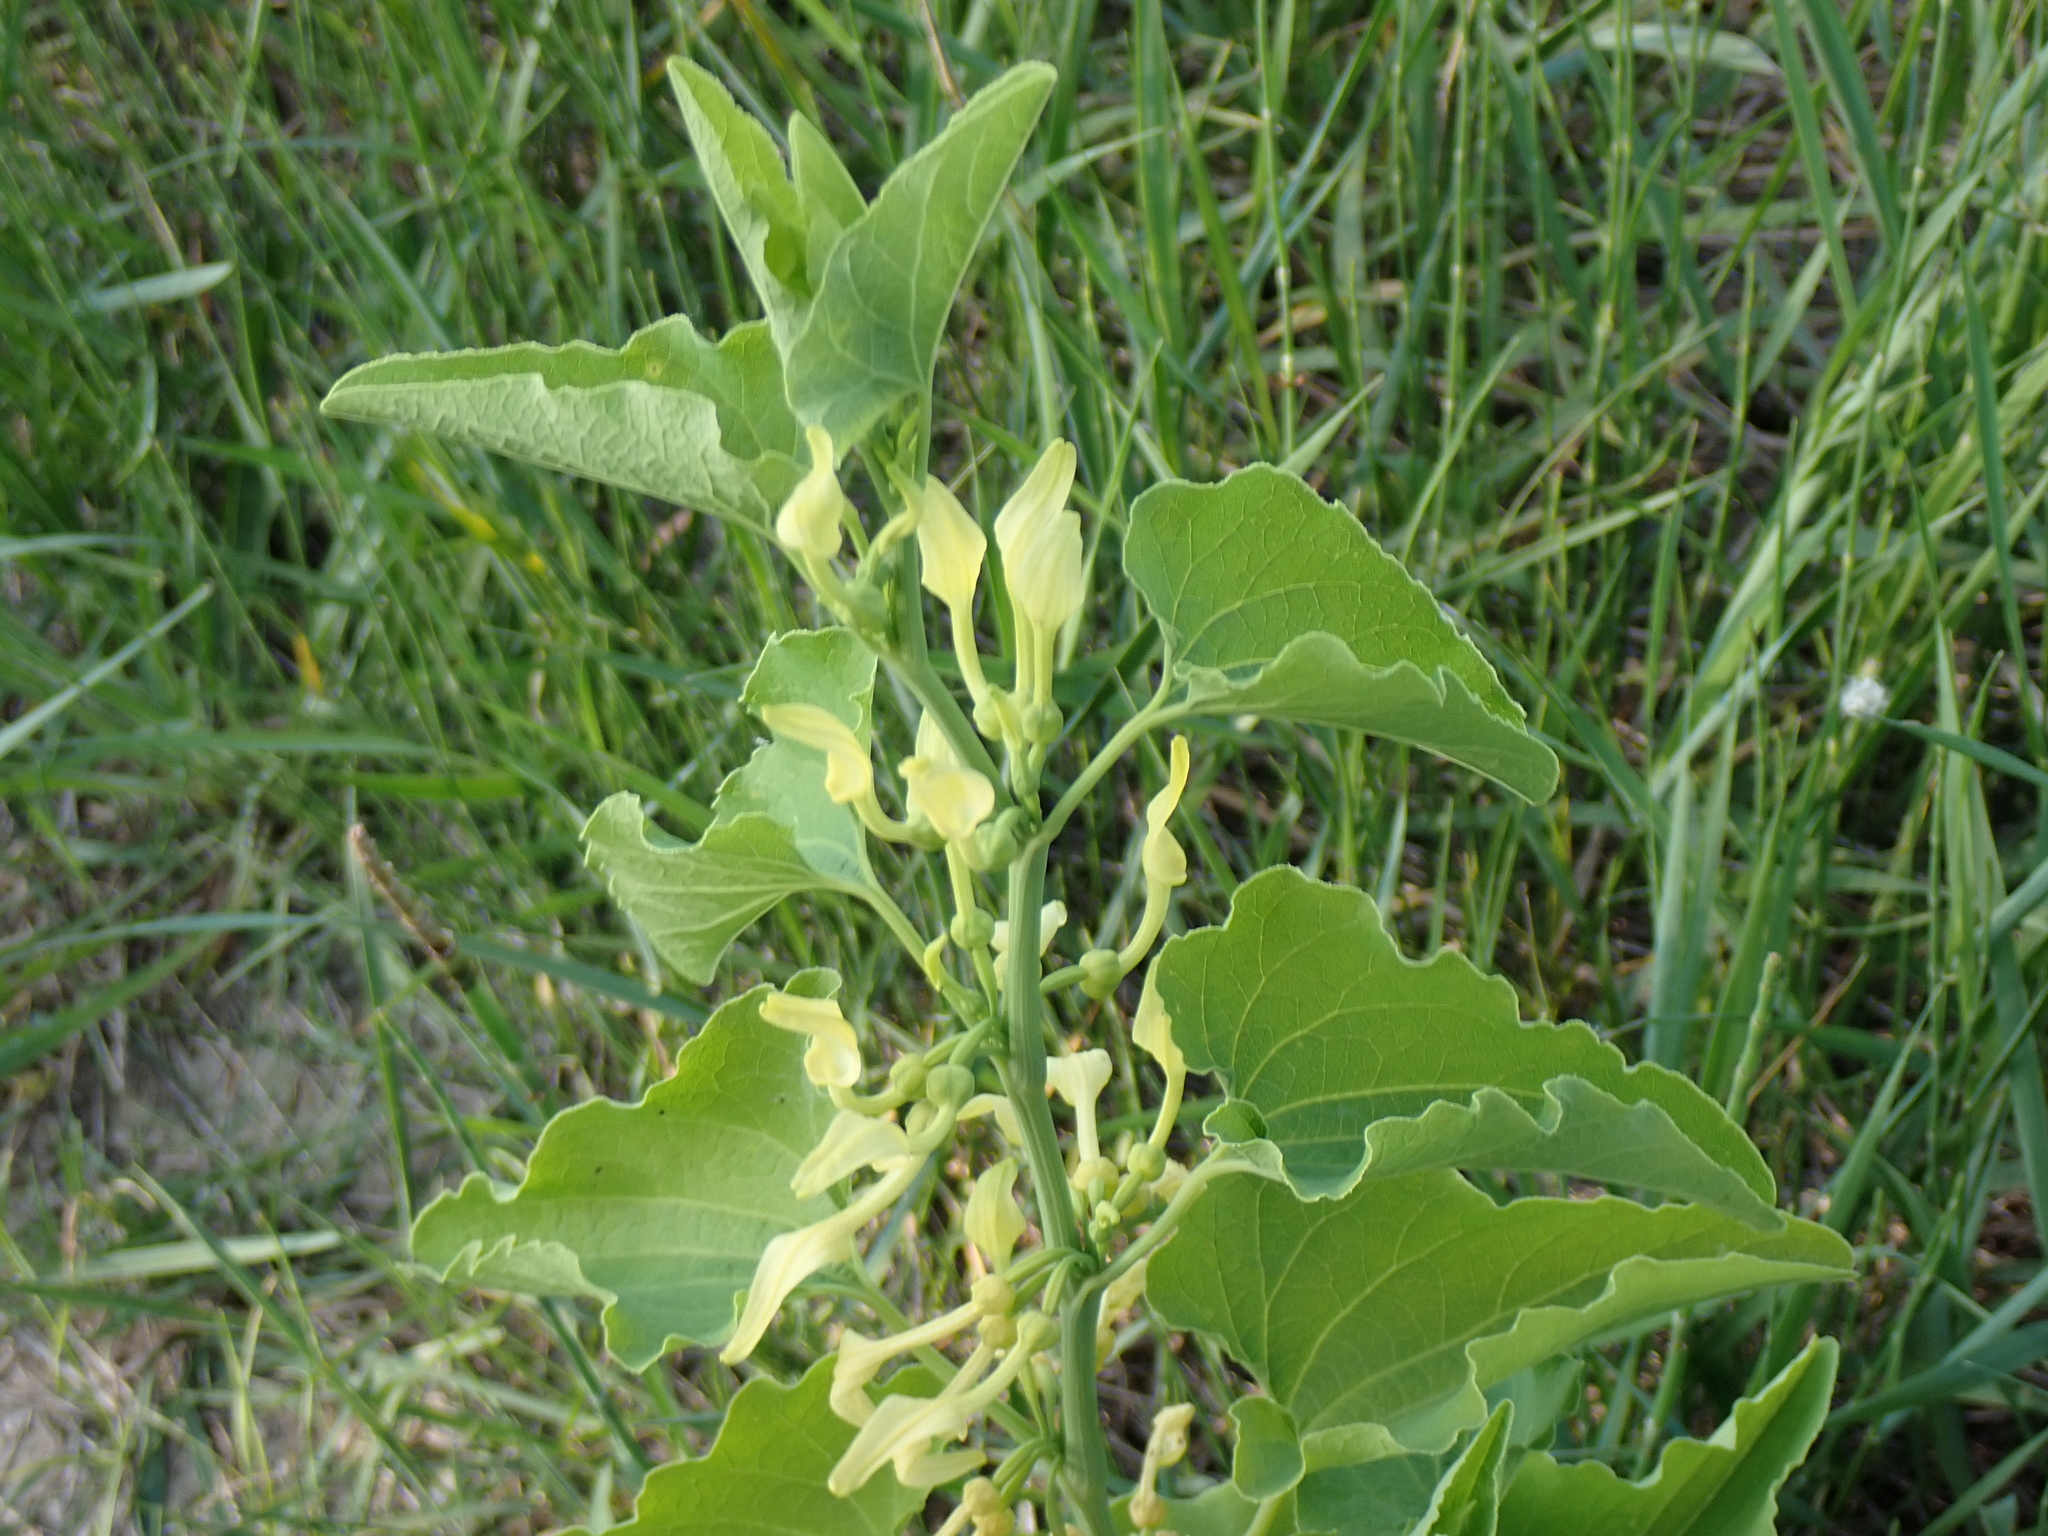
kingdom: Plantae
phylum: Tracheophyta
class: Magnoliopsida
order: Piperales
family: Aristolochiaceae
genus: Aristolochia
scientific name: Aristolochia clematitis
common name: Birthwort
